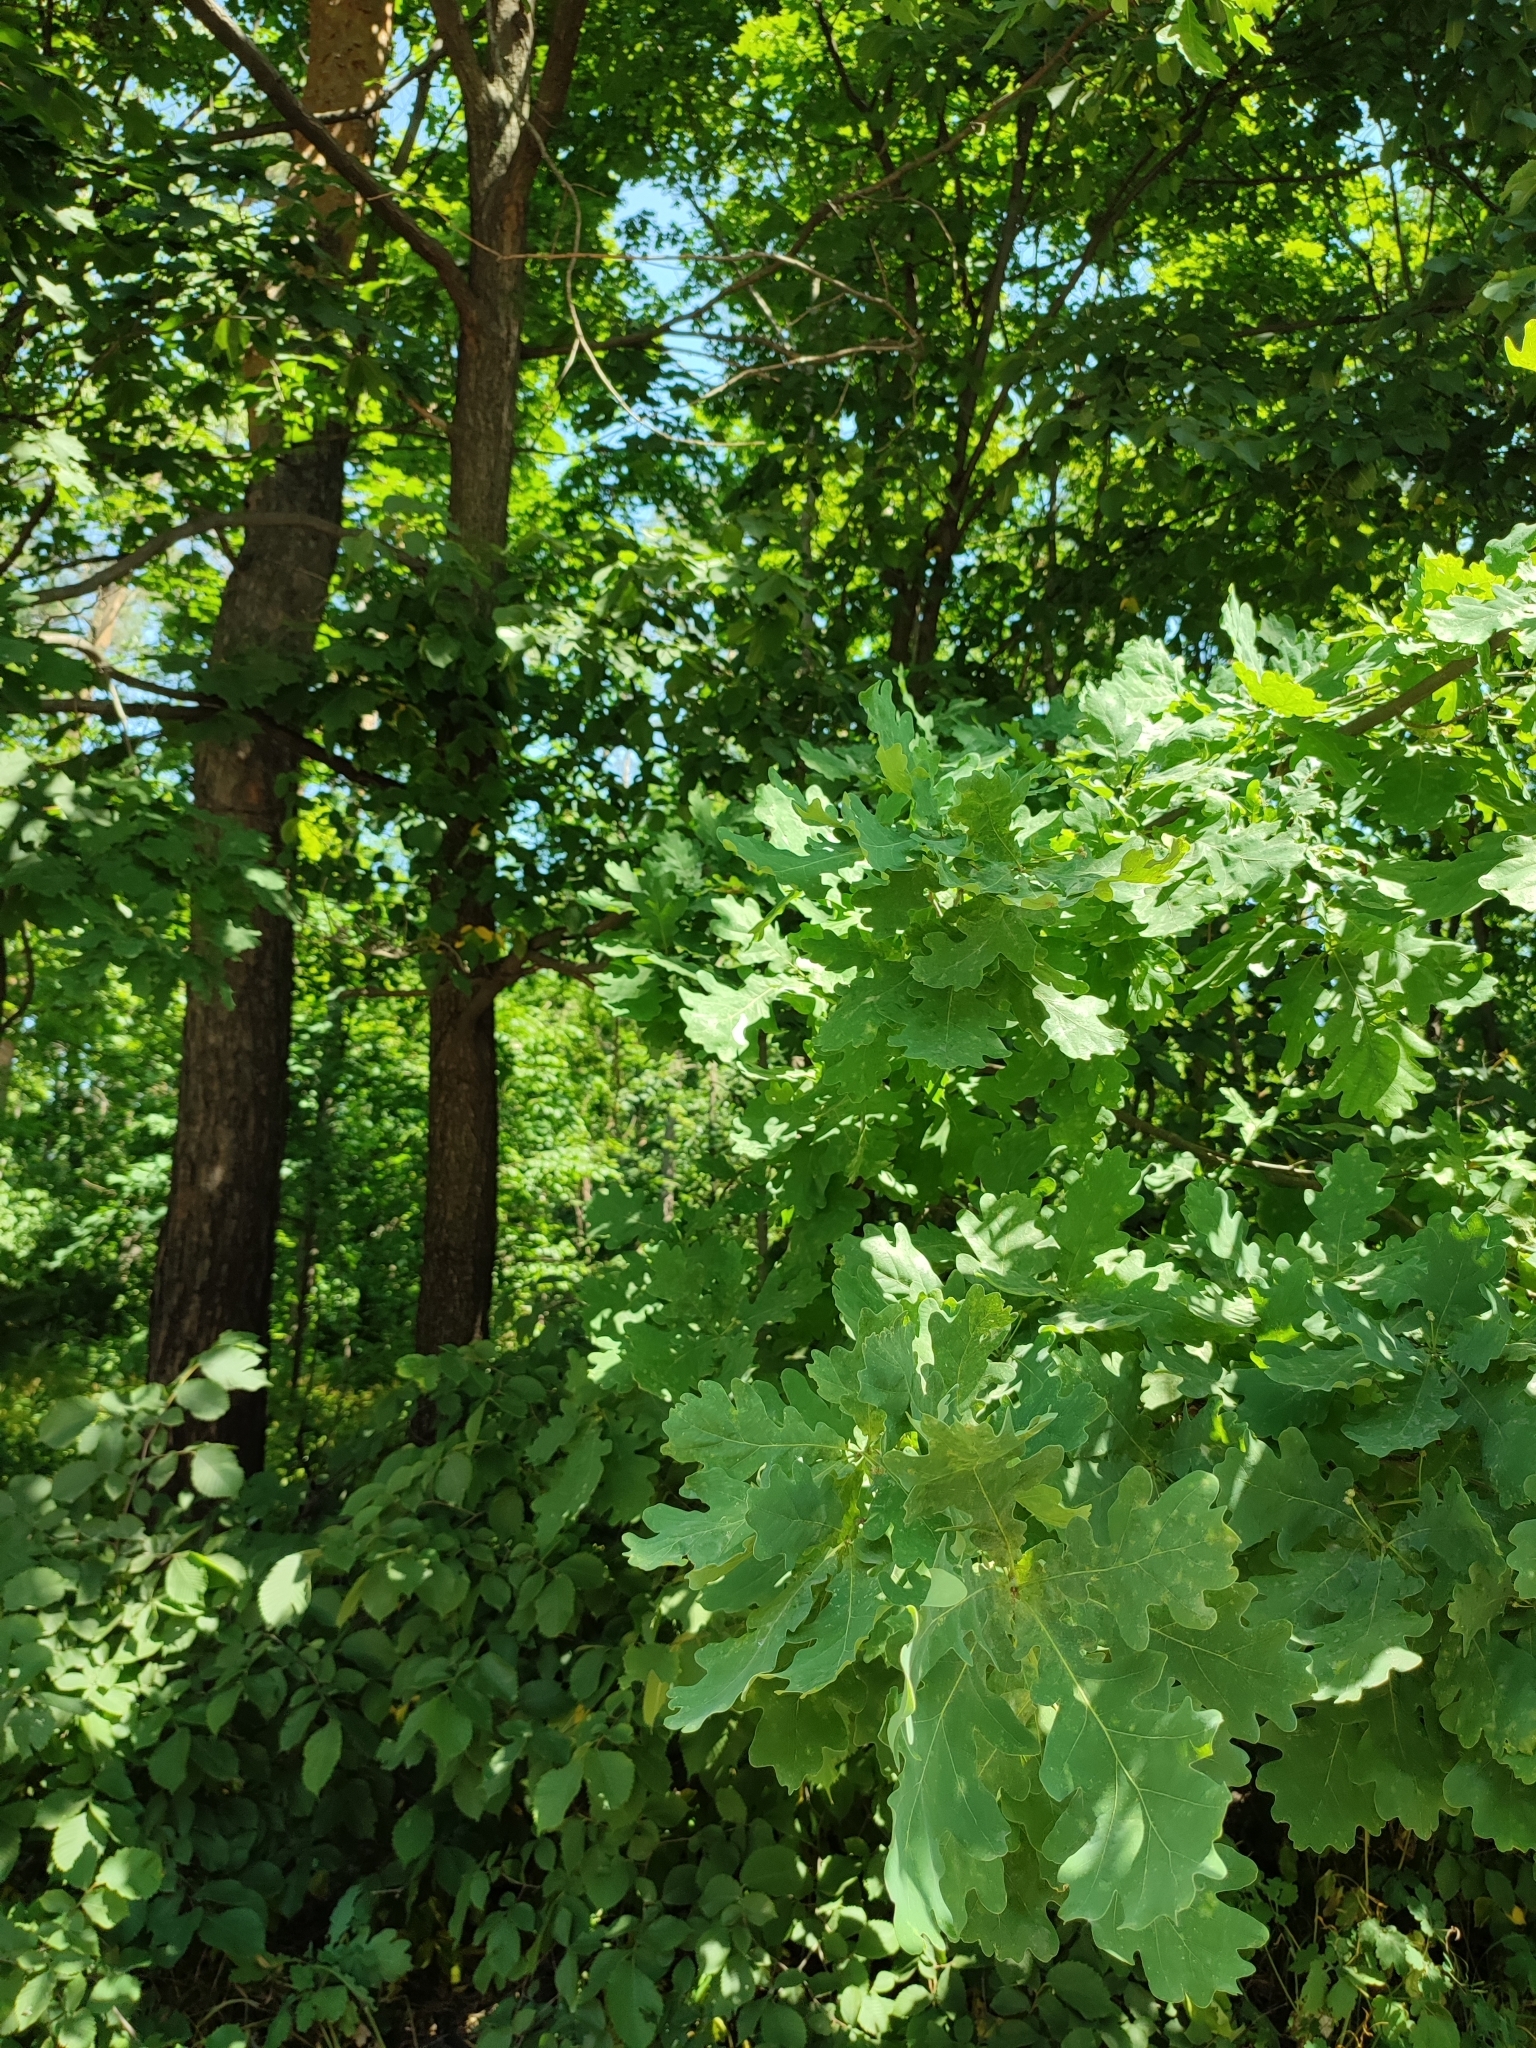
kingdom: Plantae
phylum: Tracheophyta
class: Magnoliopsida
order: Fagales
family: Fagaceae
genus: Quercus
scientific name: Quercus robur
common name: Pedunculate oak
